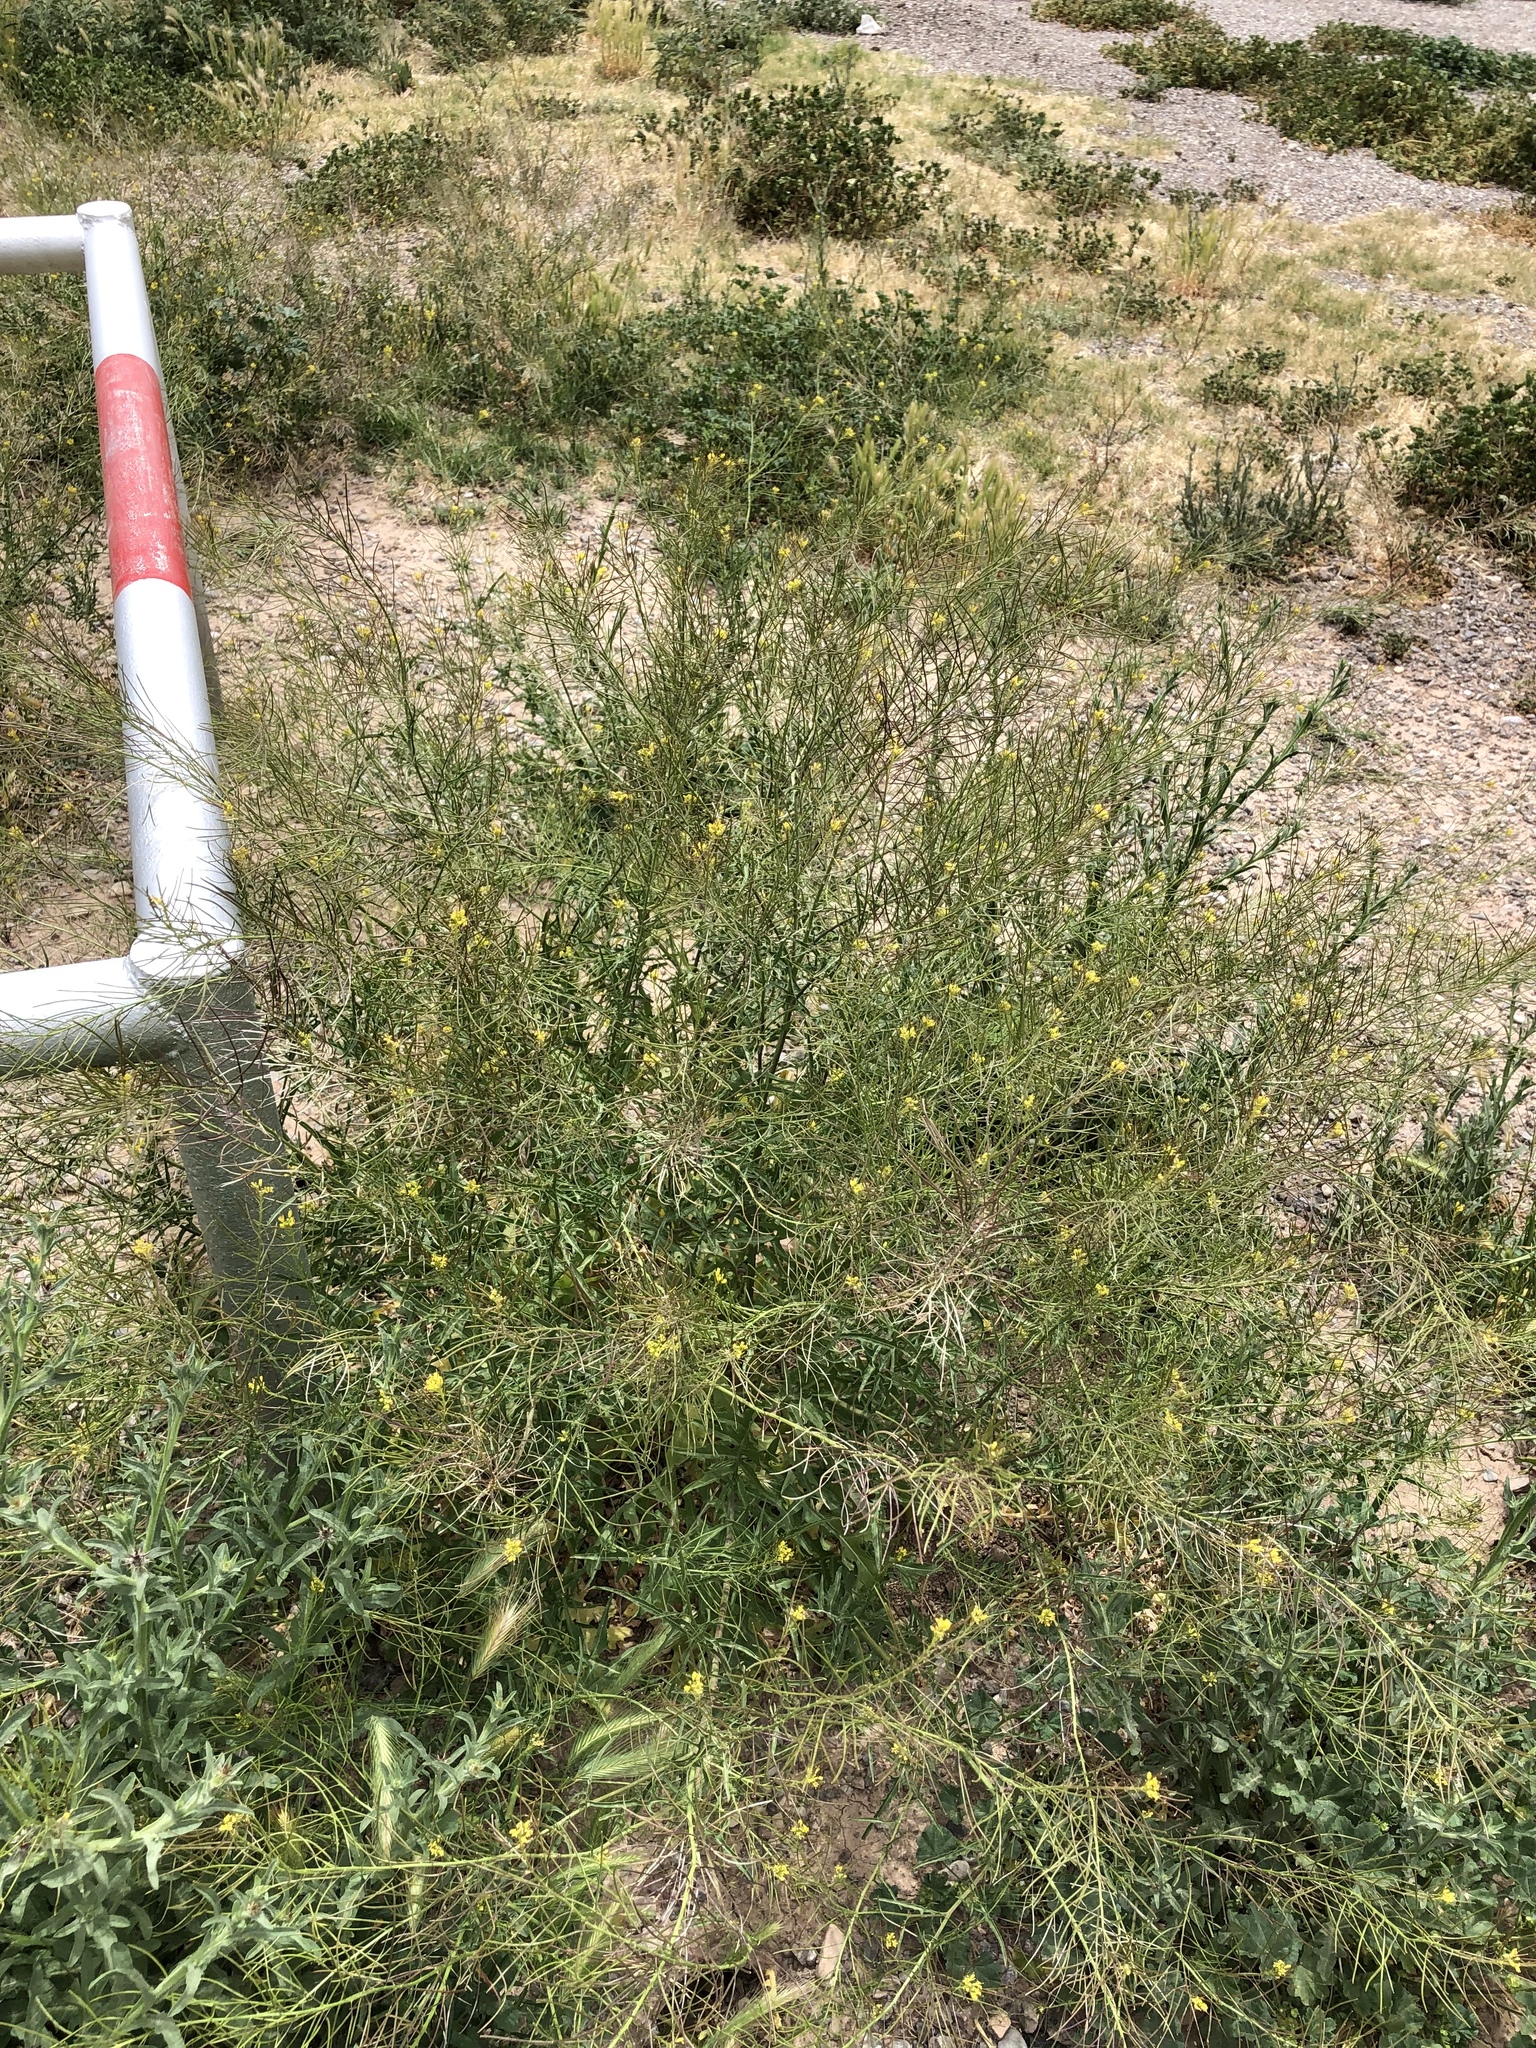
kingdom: Plantae
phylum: Tracheophyta
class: Magnoliopsida
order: Brassicales
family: Brassicaceae
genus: Sisymbrium
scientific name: Sisymbrium irio
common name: London rocket
